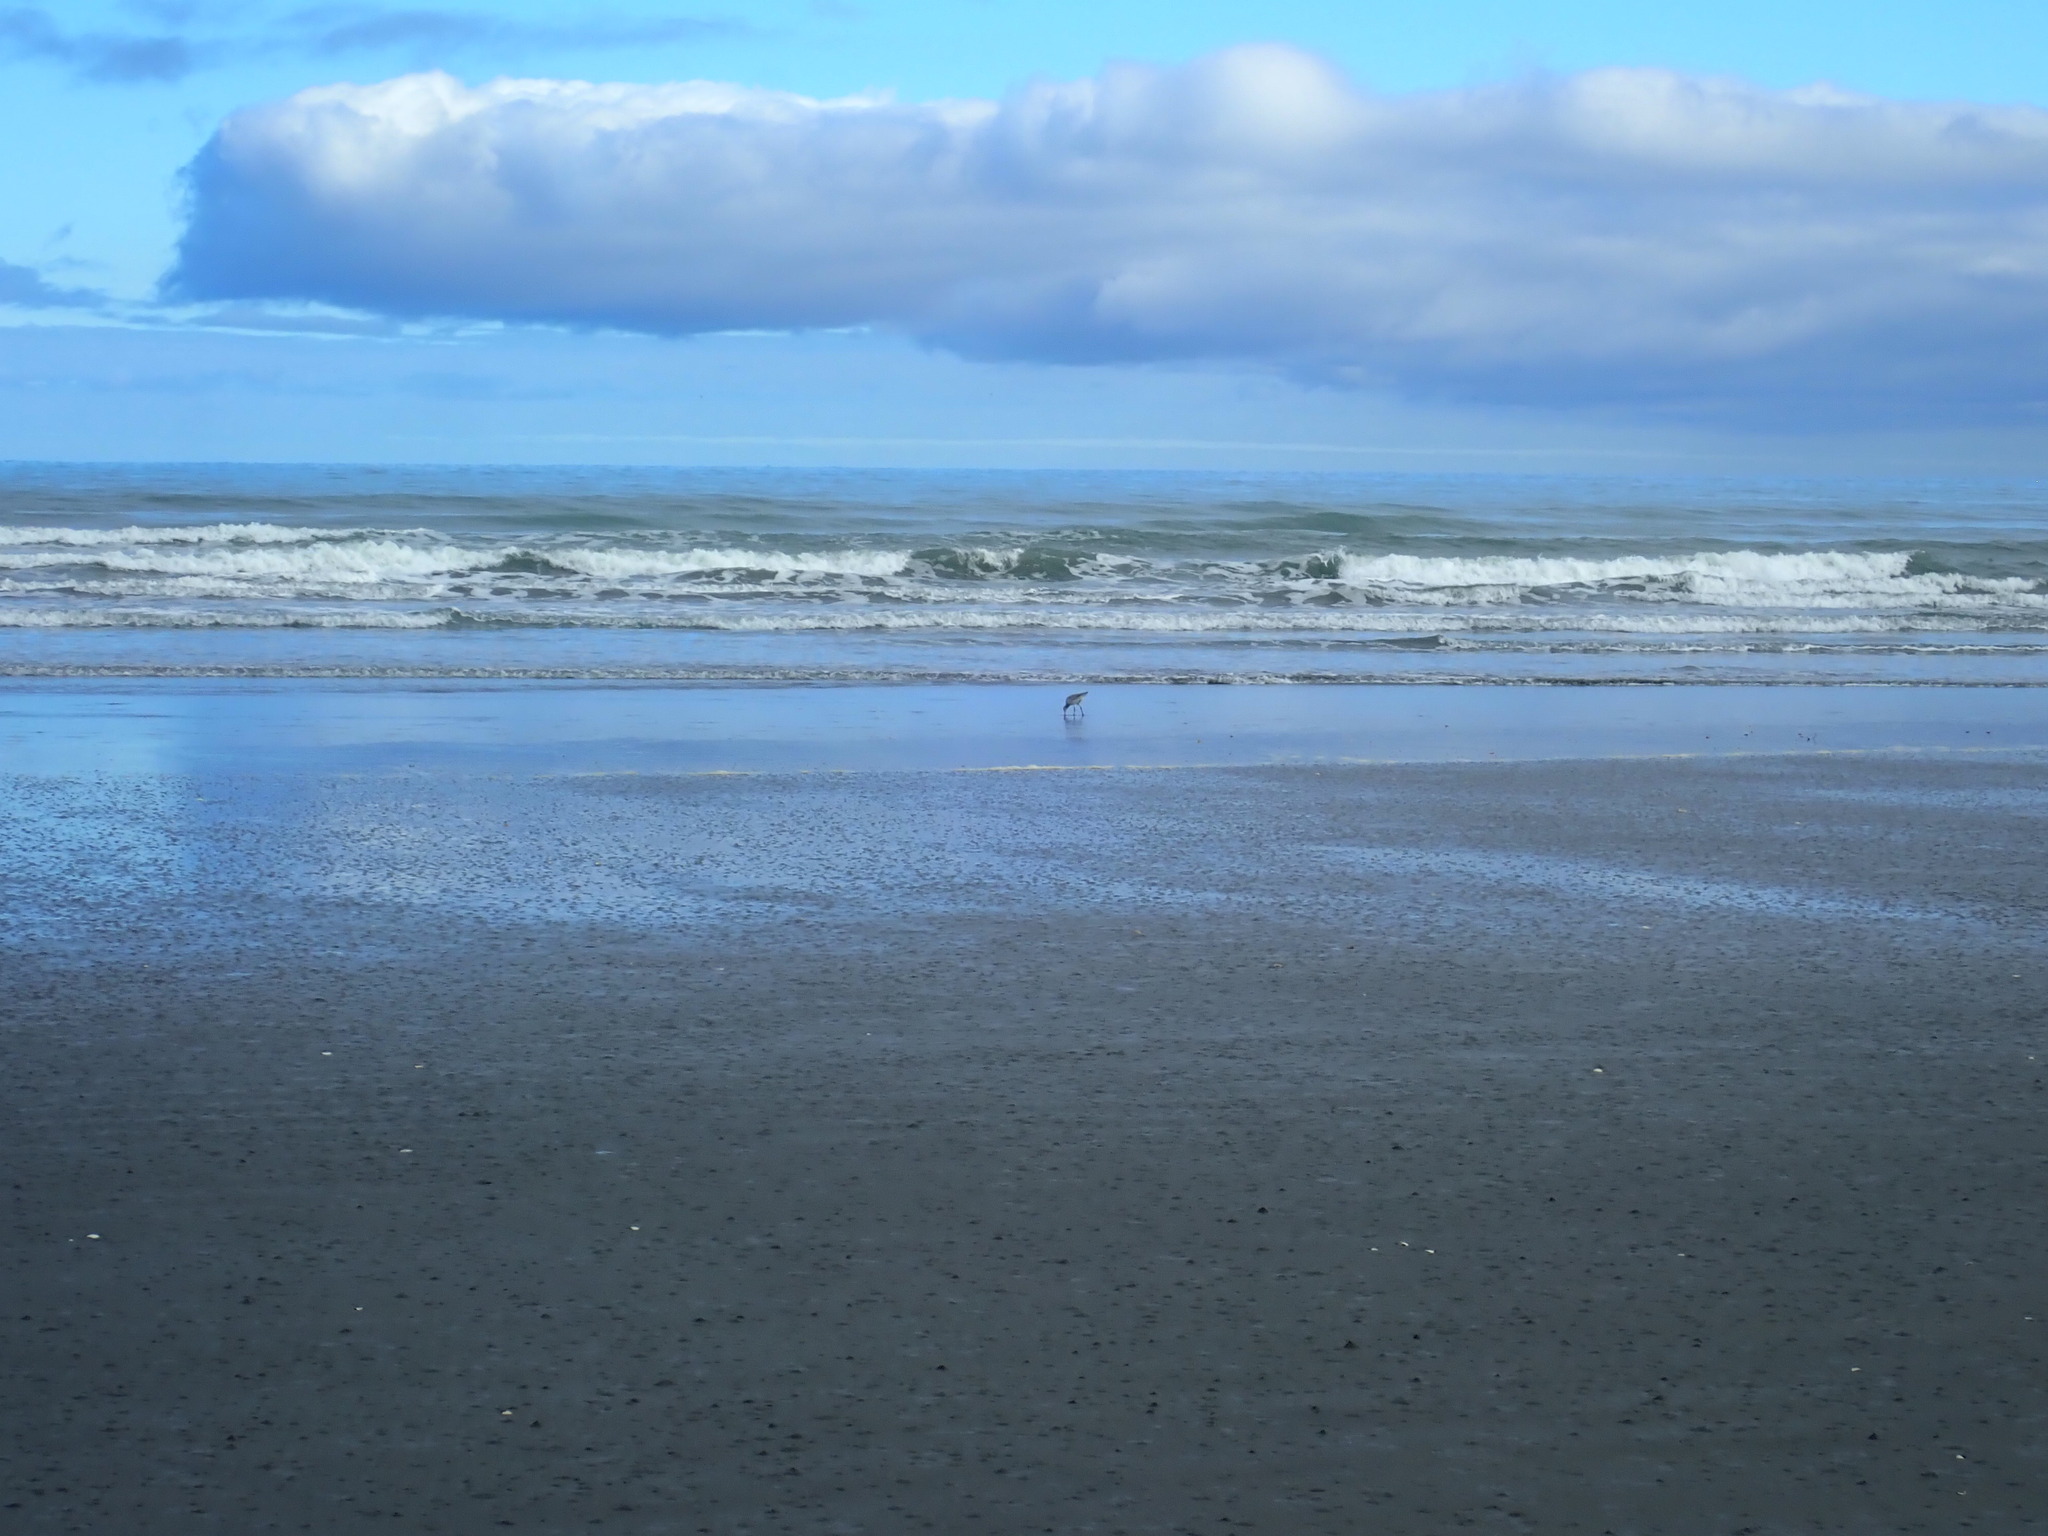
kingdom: Animalia
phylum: Chordata
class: Aves
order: Charadriiformes
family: Scolopacidae
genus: Limosa
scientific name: Limosa lapponica
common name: Bar-tailed godwit
